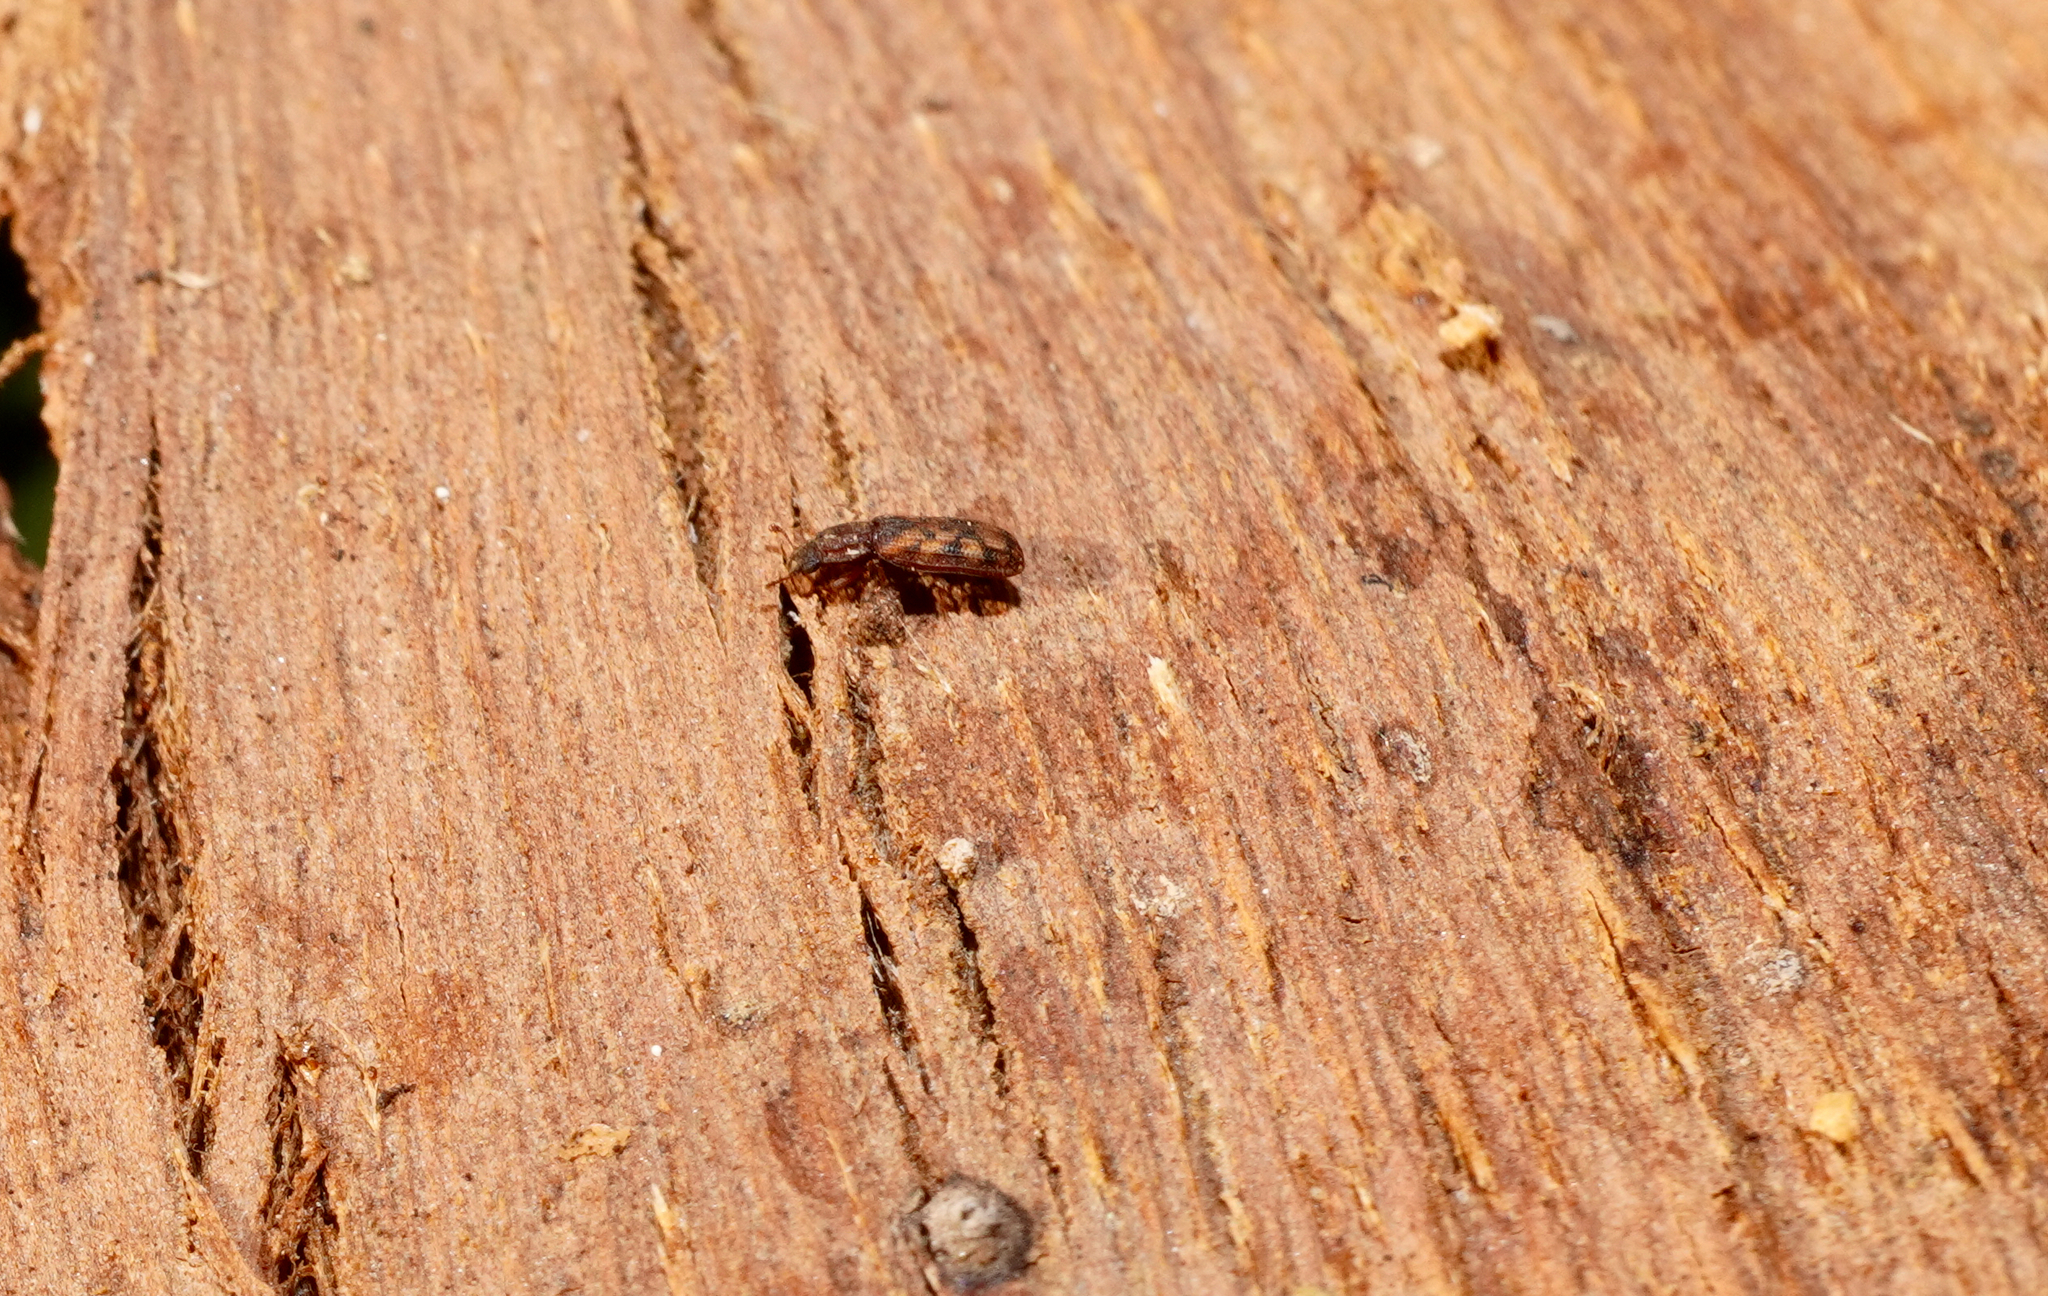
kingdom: Animalia
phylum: Arthropoda
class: Insecta
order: Coleoptera
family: Zopheridae
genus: Bitoma
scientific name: Bitoma insularis
